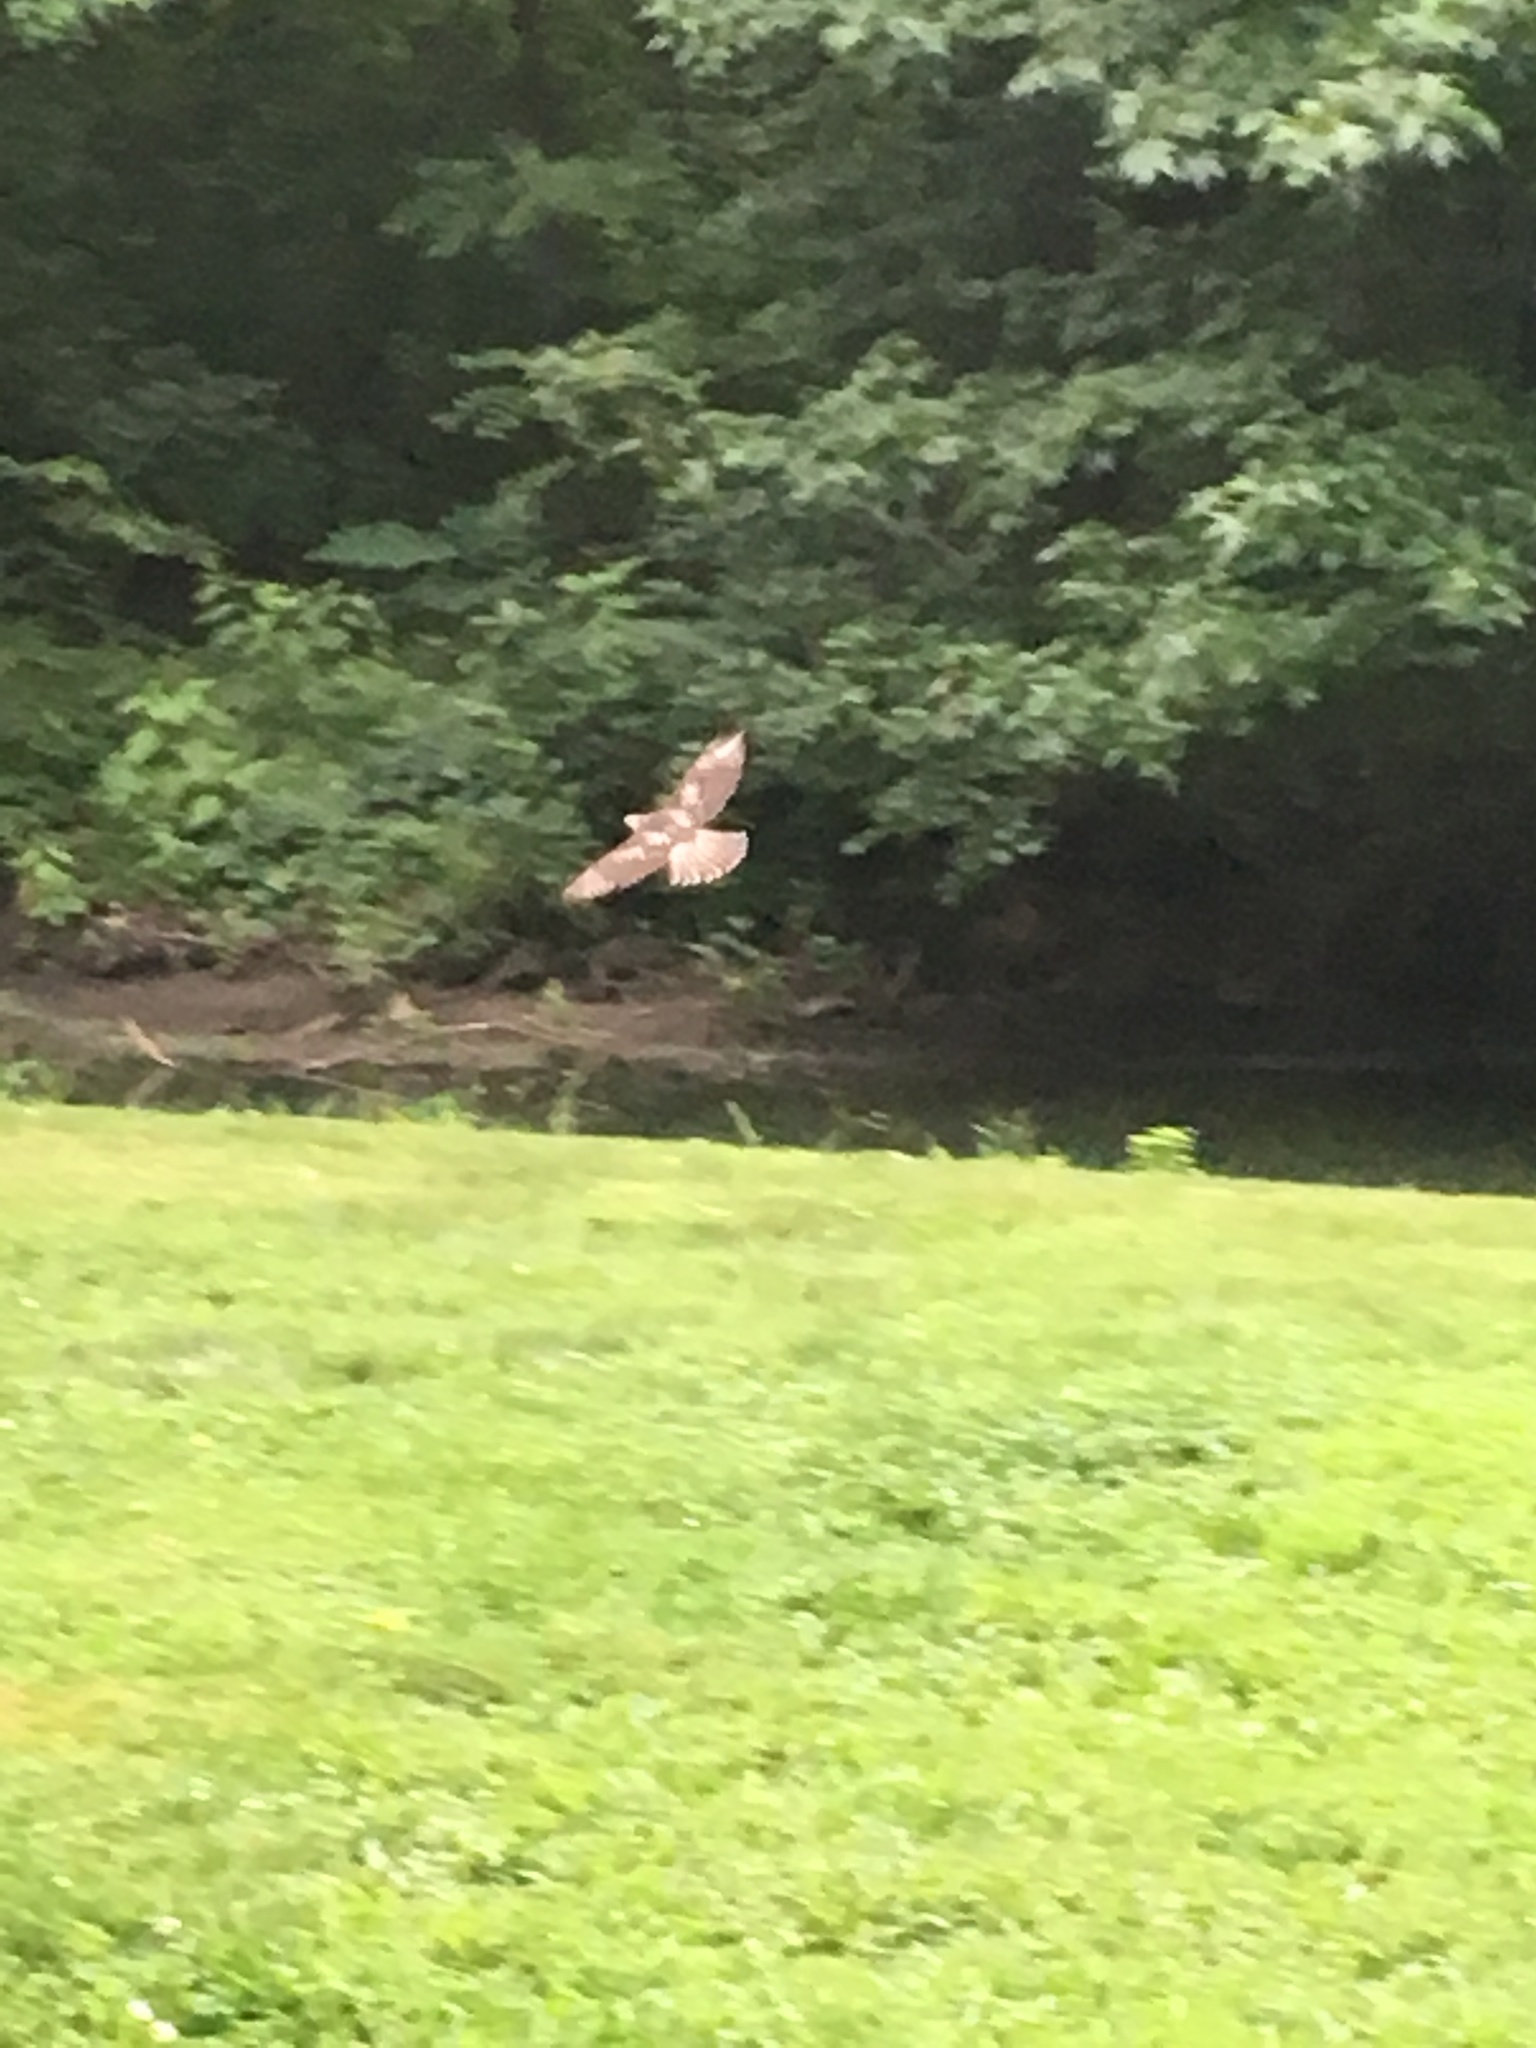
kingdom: Animalia
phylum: Chordata
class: Aves
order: Accipitriformes
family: Accipitridae
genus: Buteo
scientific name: Buteo jamaicensis
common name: Red-tailed hawk
